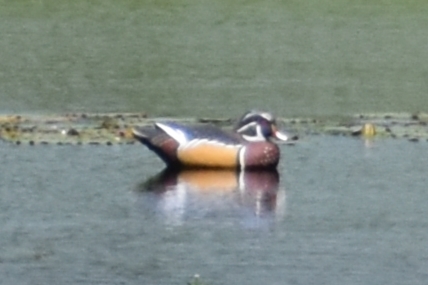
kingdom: Animalia
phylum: Chordata
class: Aves
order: Anseriformes
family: Anatidae
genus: Aix
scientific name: Aix sponsa
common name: Wood duck
